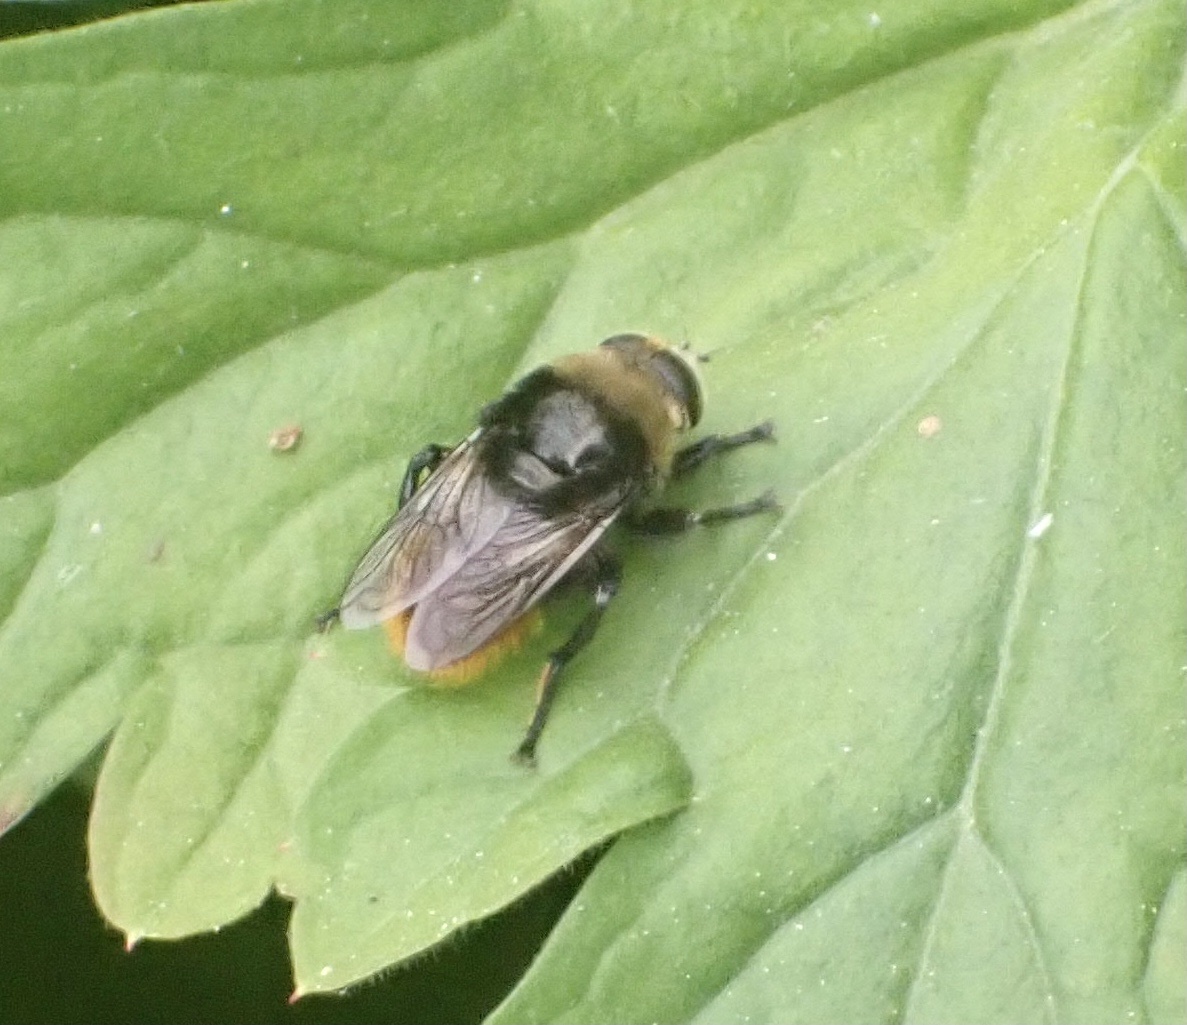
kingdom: Animalia
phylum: Arthropoda
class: Insecta
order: Diptera
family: Syrphidae
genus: Merodon
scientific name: Merodon equestris
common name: Greater bulb-fly
